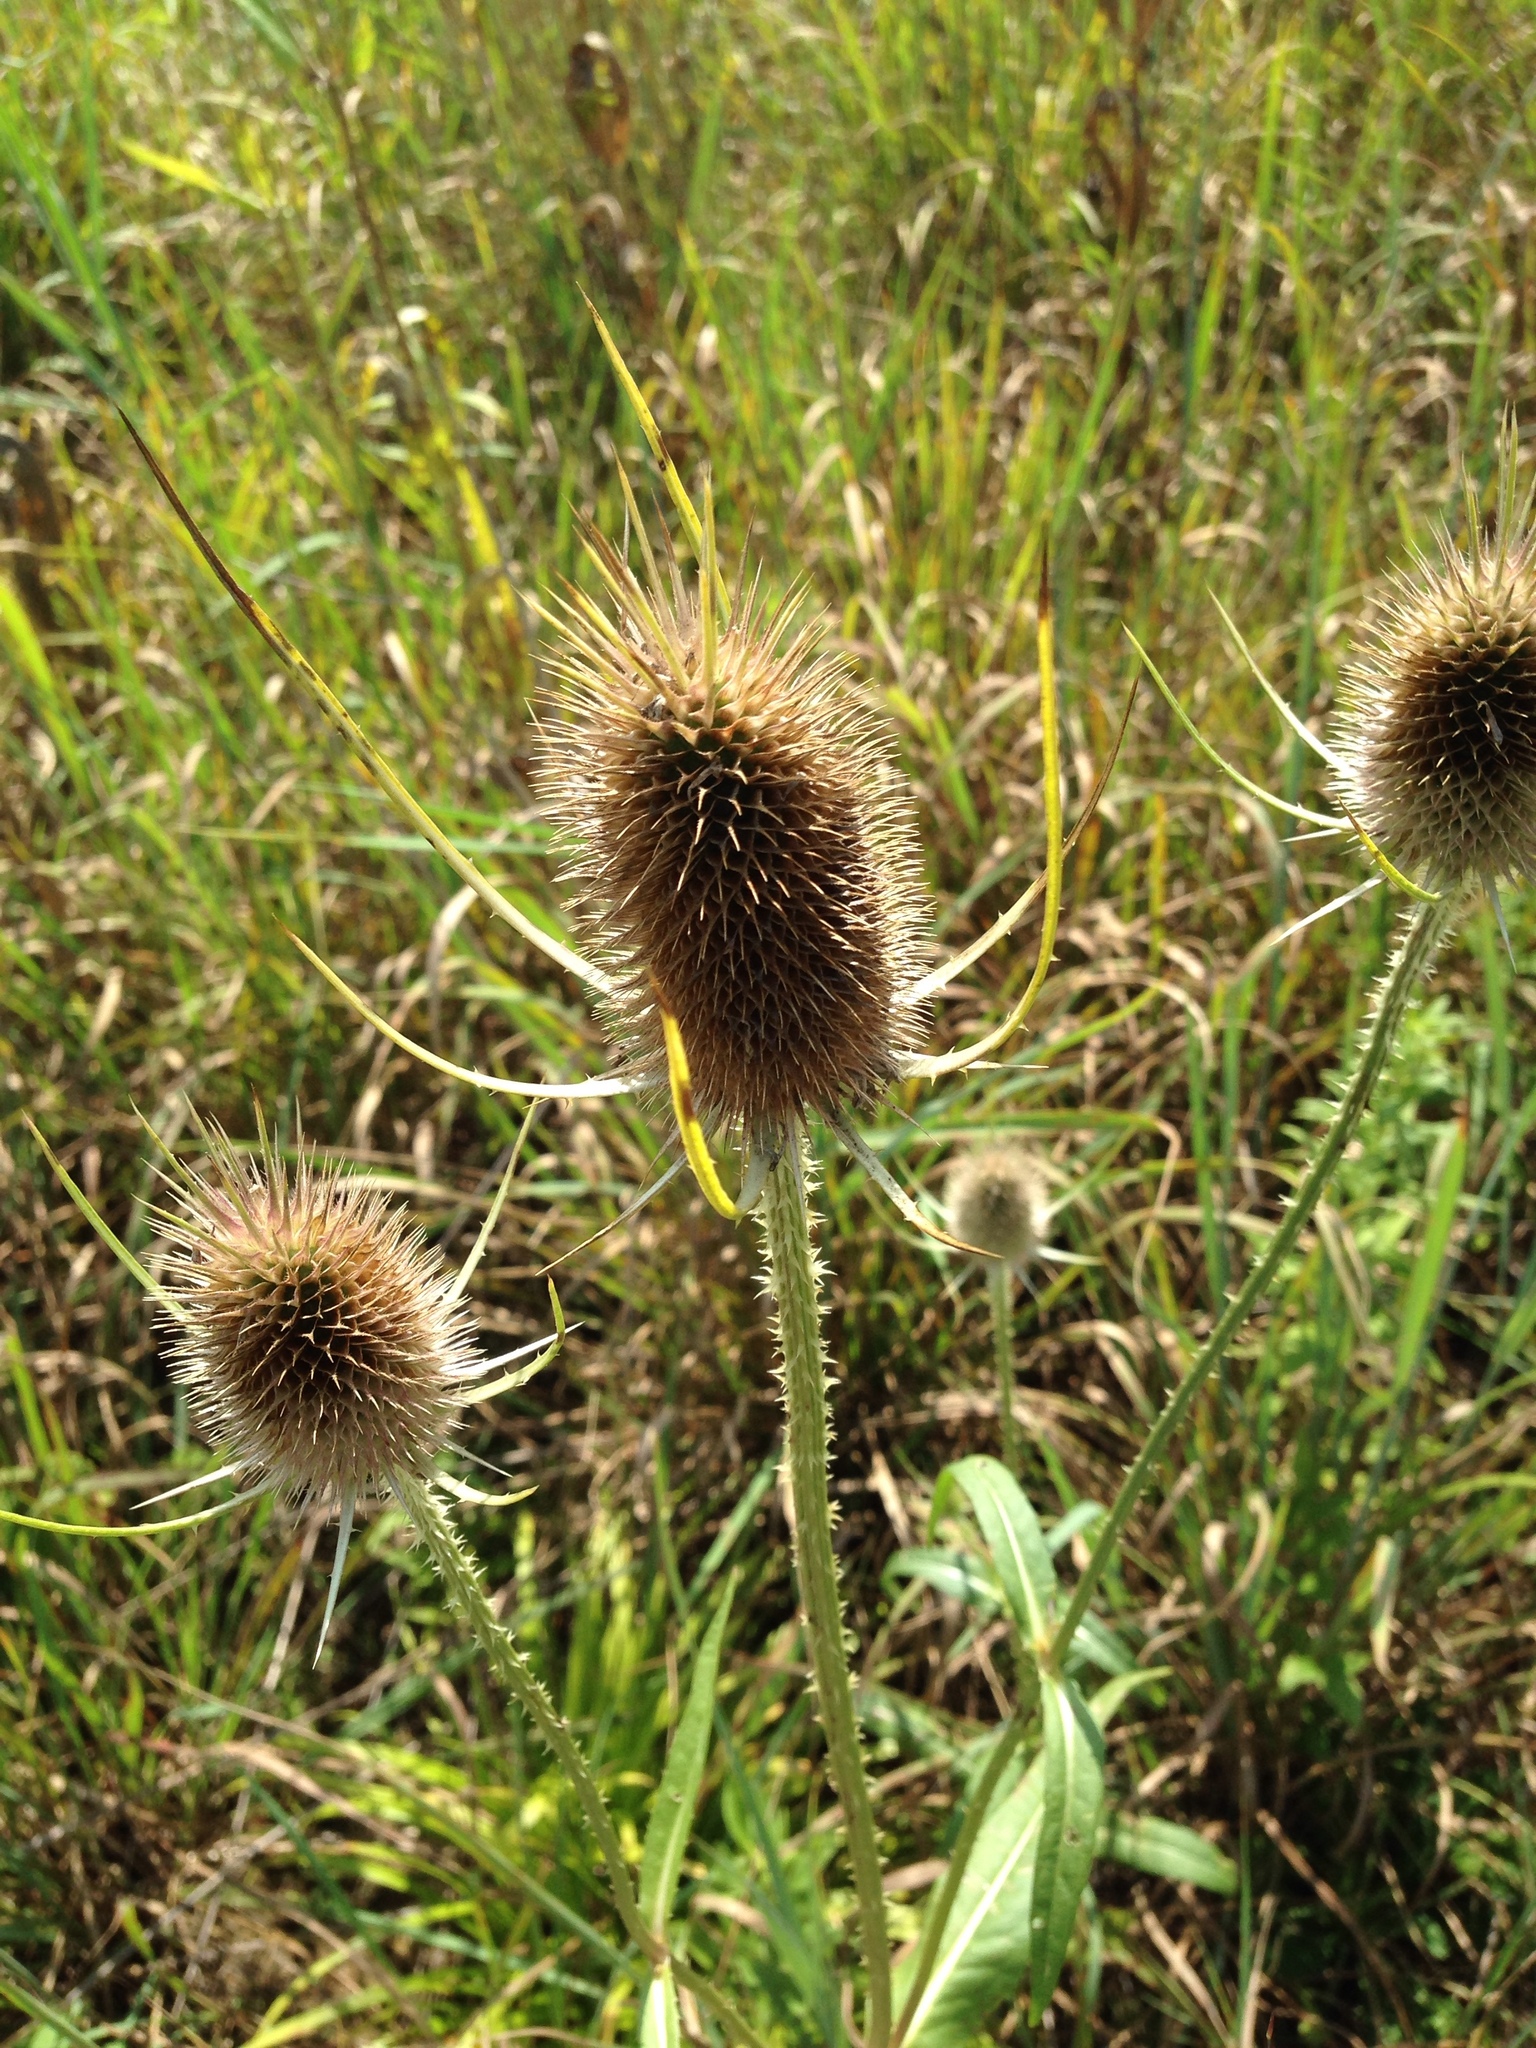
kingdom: Plantae
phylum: Tracheophyta
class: Magnoliopsida
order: Dipsacales
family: Caprifoliaceae
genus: Dipsacus
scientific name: Dipsacus fullonum
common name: Teasel
